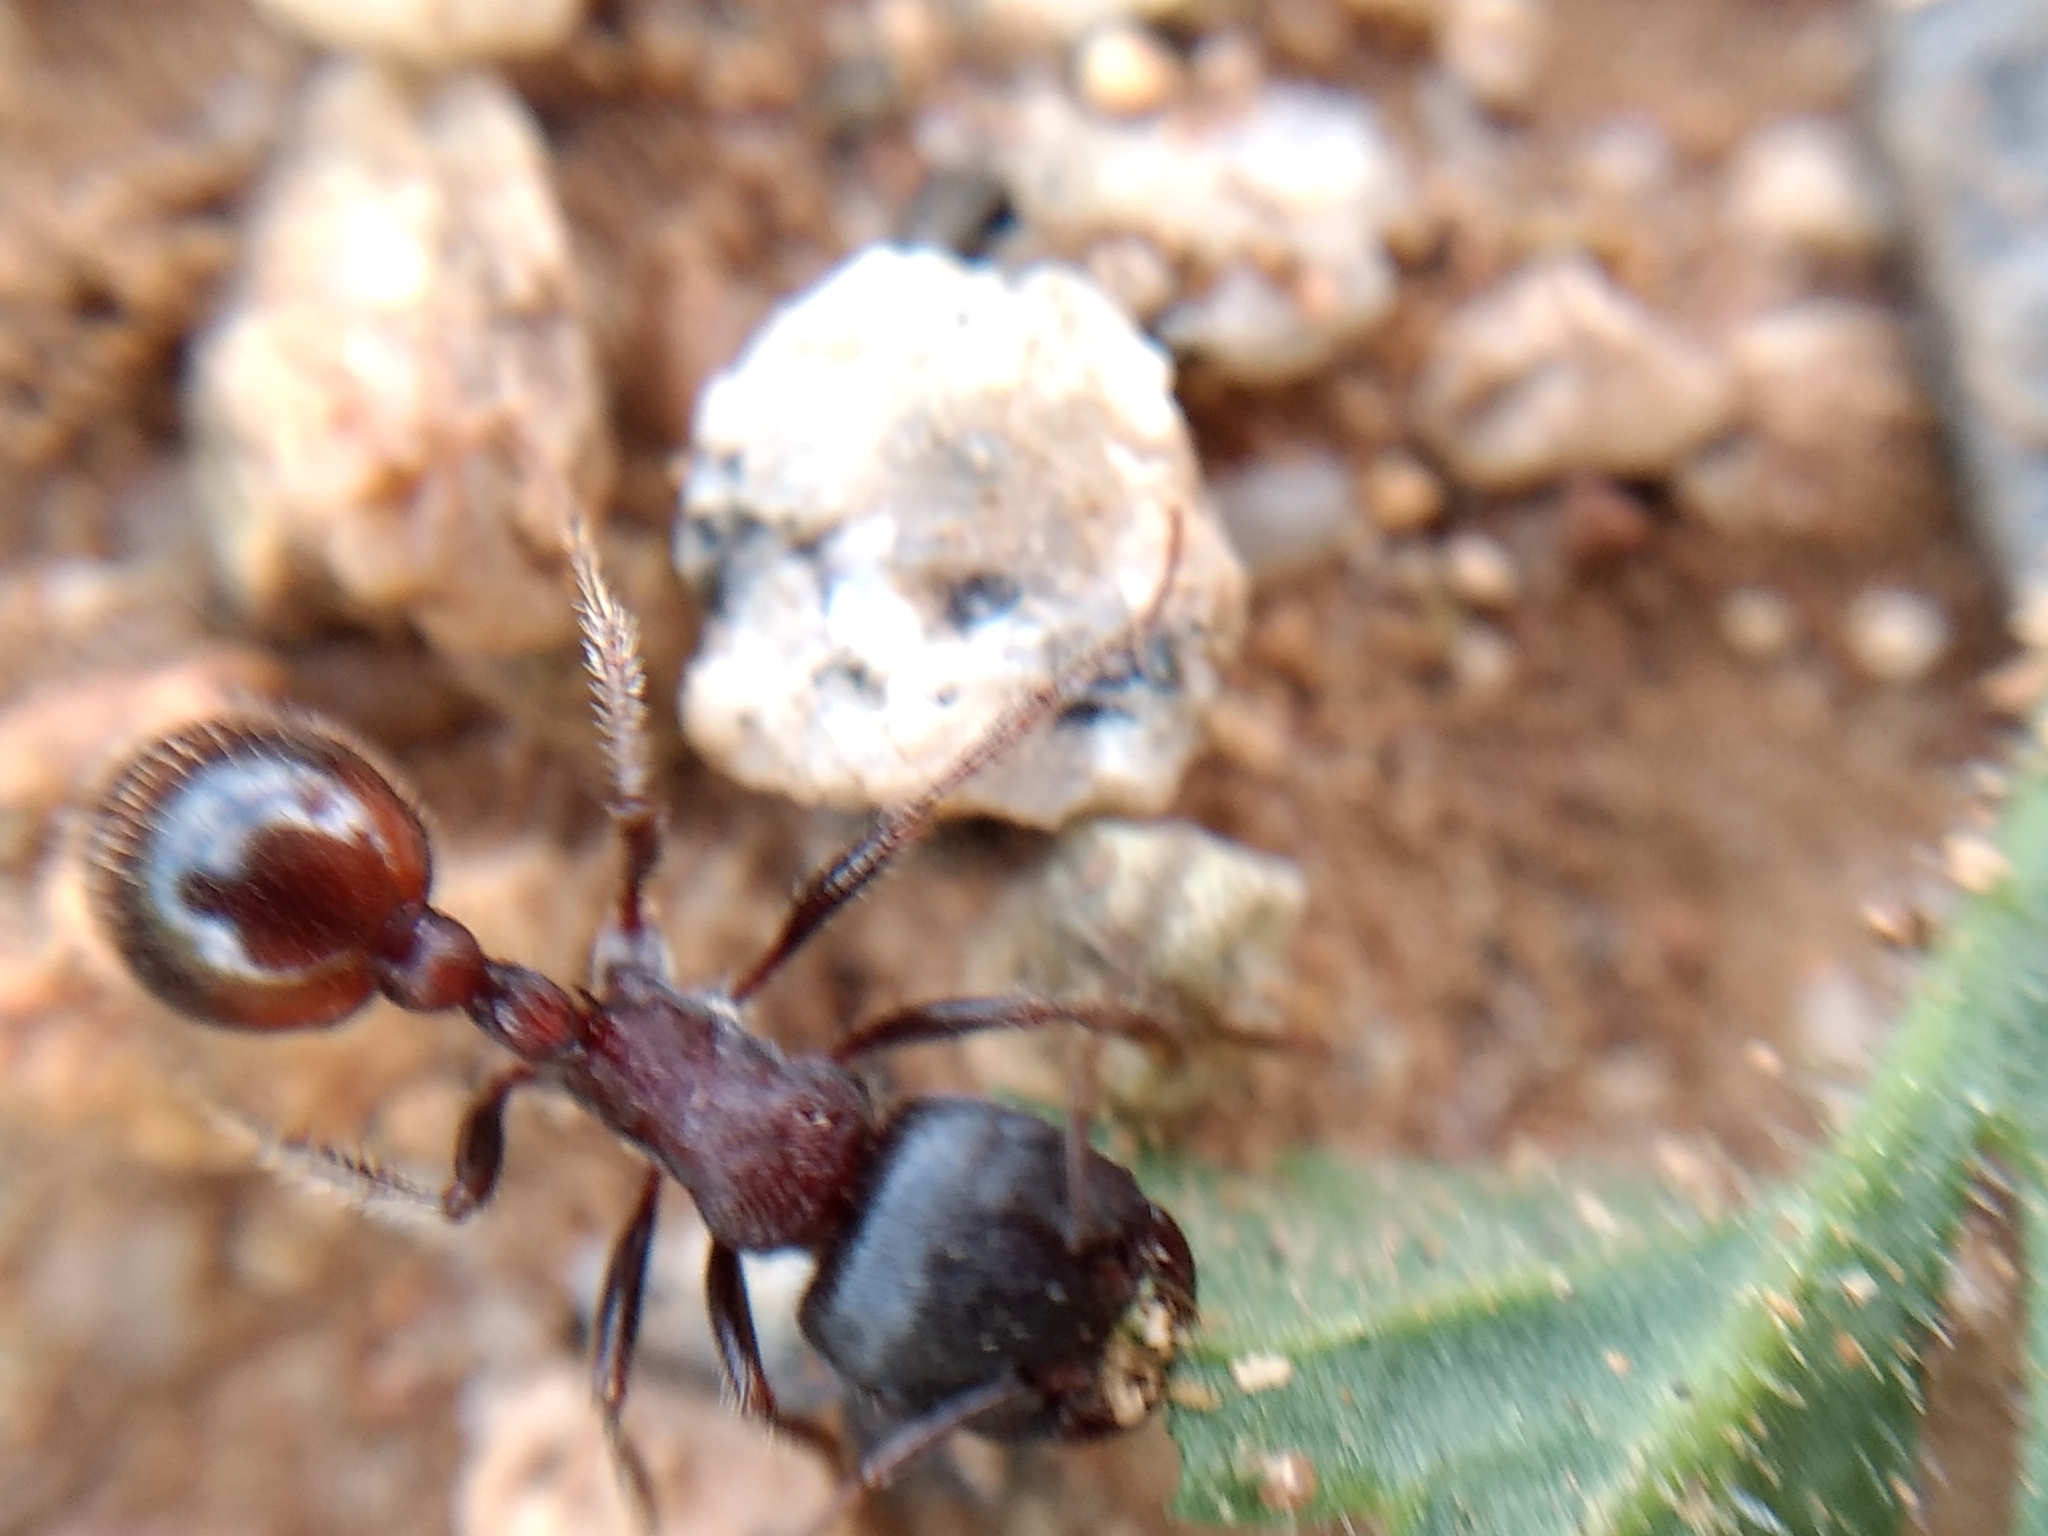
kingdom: Animalia
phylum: Arthropoda
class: Insecta
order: Hymenoptera
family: Formicidae
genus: Pogonomyrmex
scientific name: Pogonomyrmex rugosus
